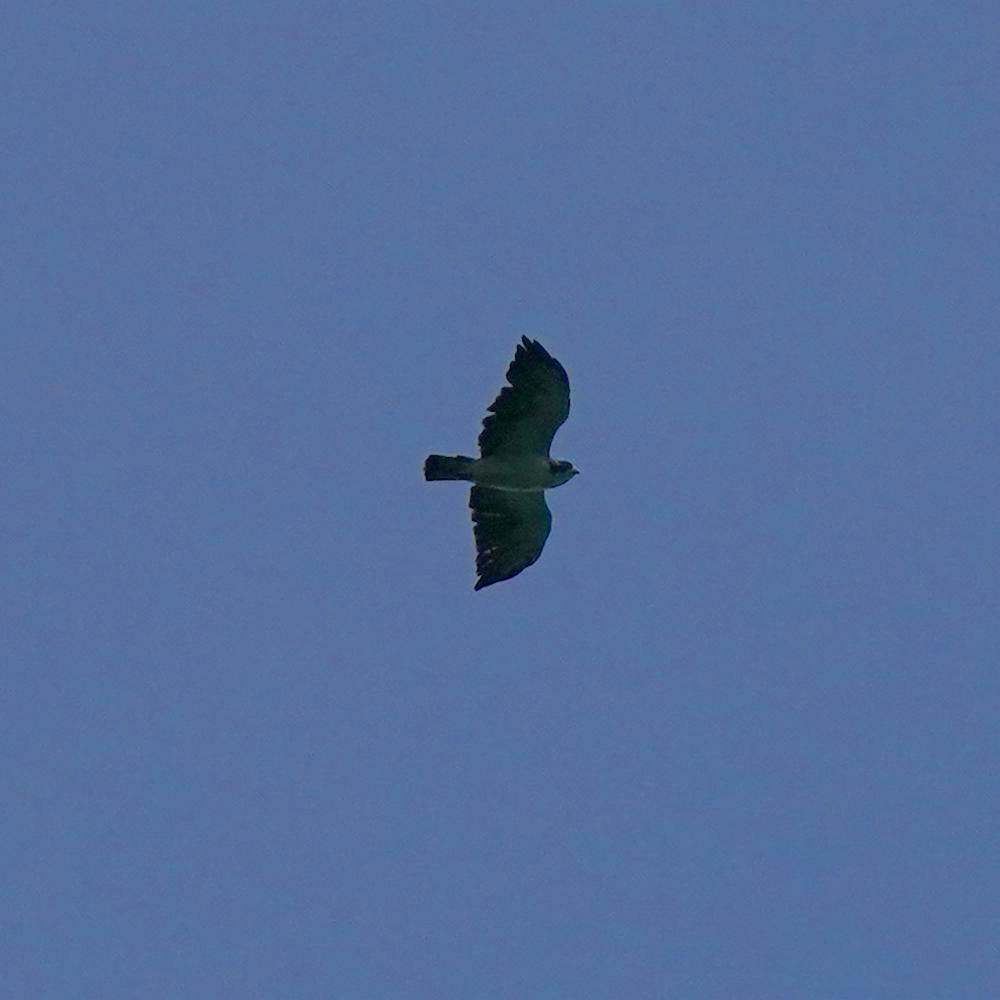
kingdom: Animalia
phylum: Chordata
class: Aves
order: Accipitriformes
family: Accipitridae
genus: Buteo
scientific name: Buteo brachyurus
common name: Short-tailed hawk
